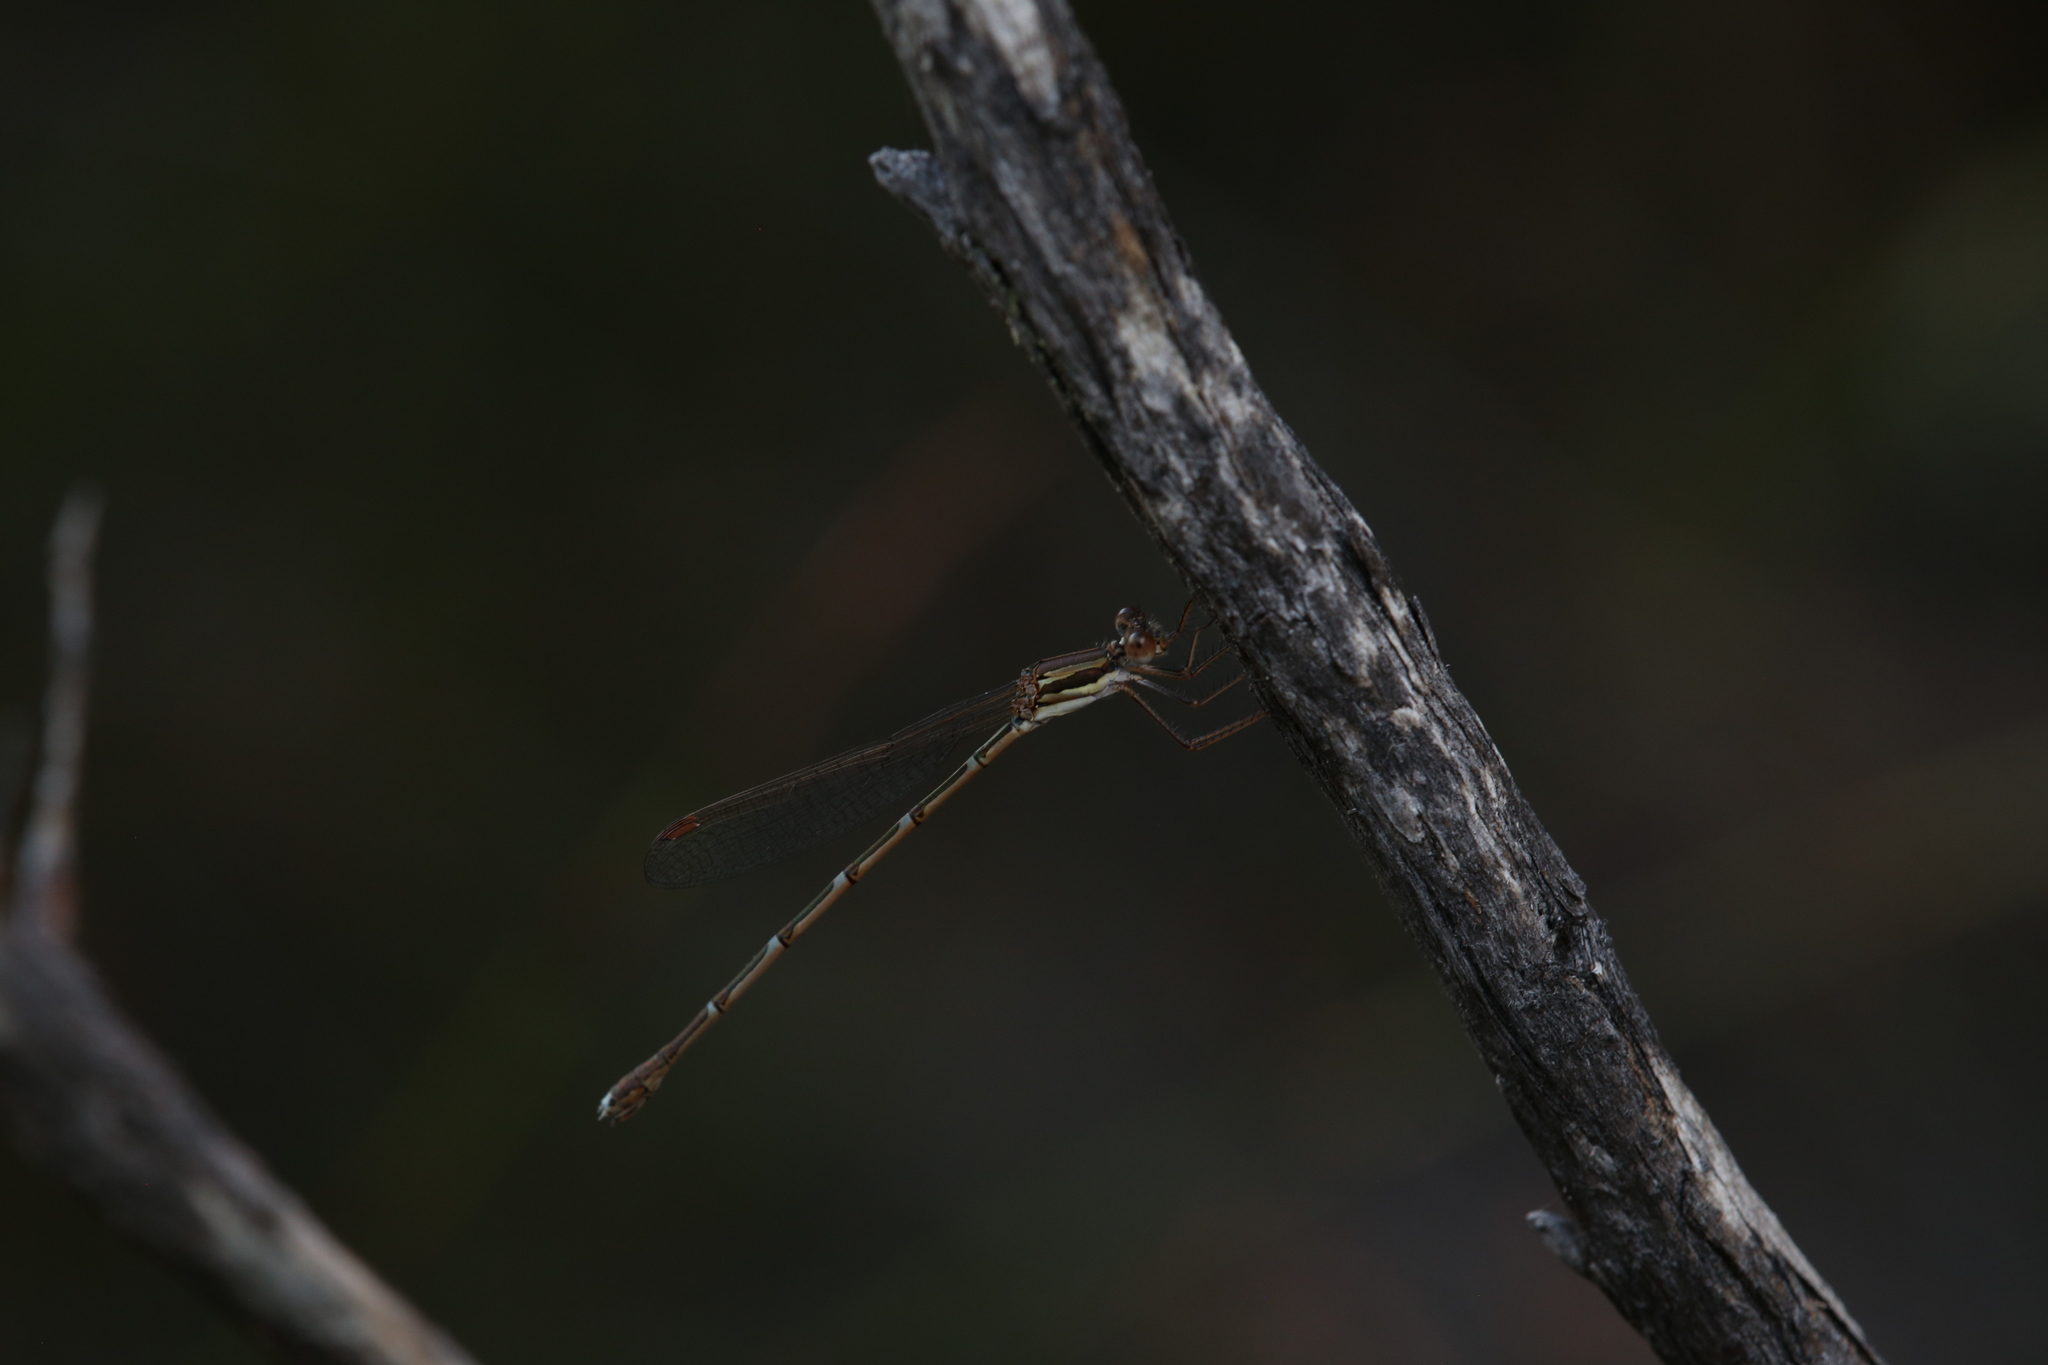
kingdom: Animalia
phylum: Arthropoda
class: Insecta
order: Odonata
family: Lestidae
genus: Austrolestes
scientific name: Austrolestes analis
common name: Slender ringtail
